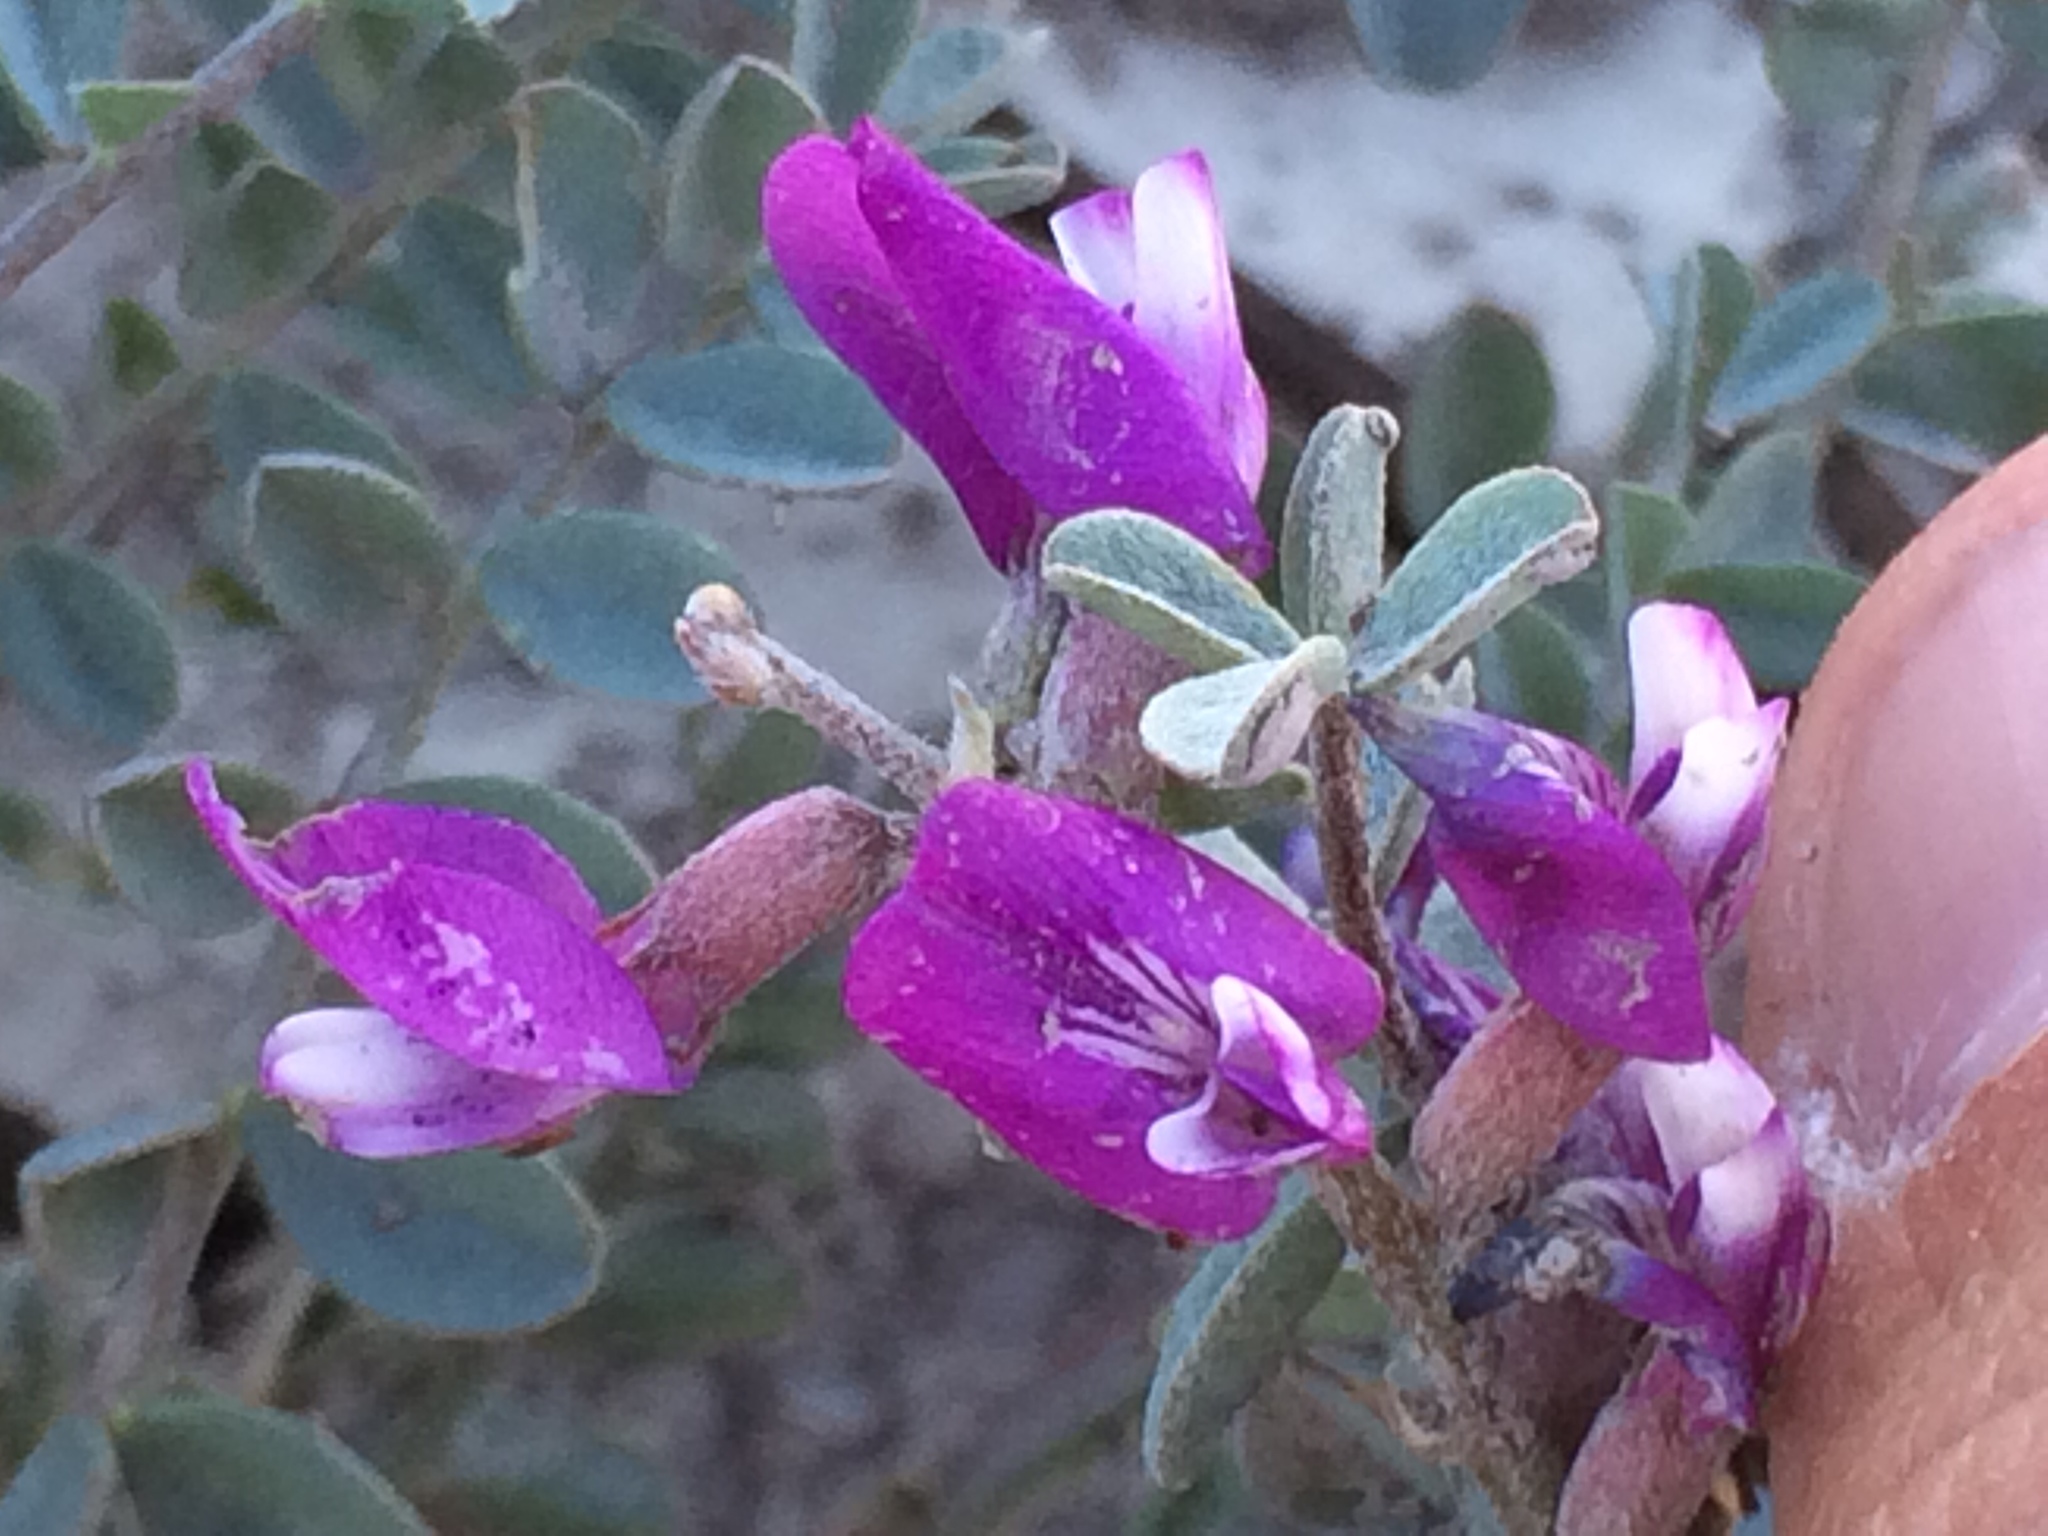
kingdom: Plantae
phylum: Tracheophyta
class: Magnoliopsida
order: Fabales
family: Fabaceae
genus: Astragalus
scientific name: Astragalus lentiginosus
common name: Freckled milkvetch
